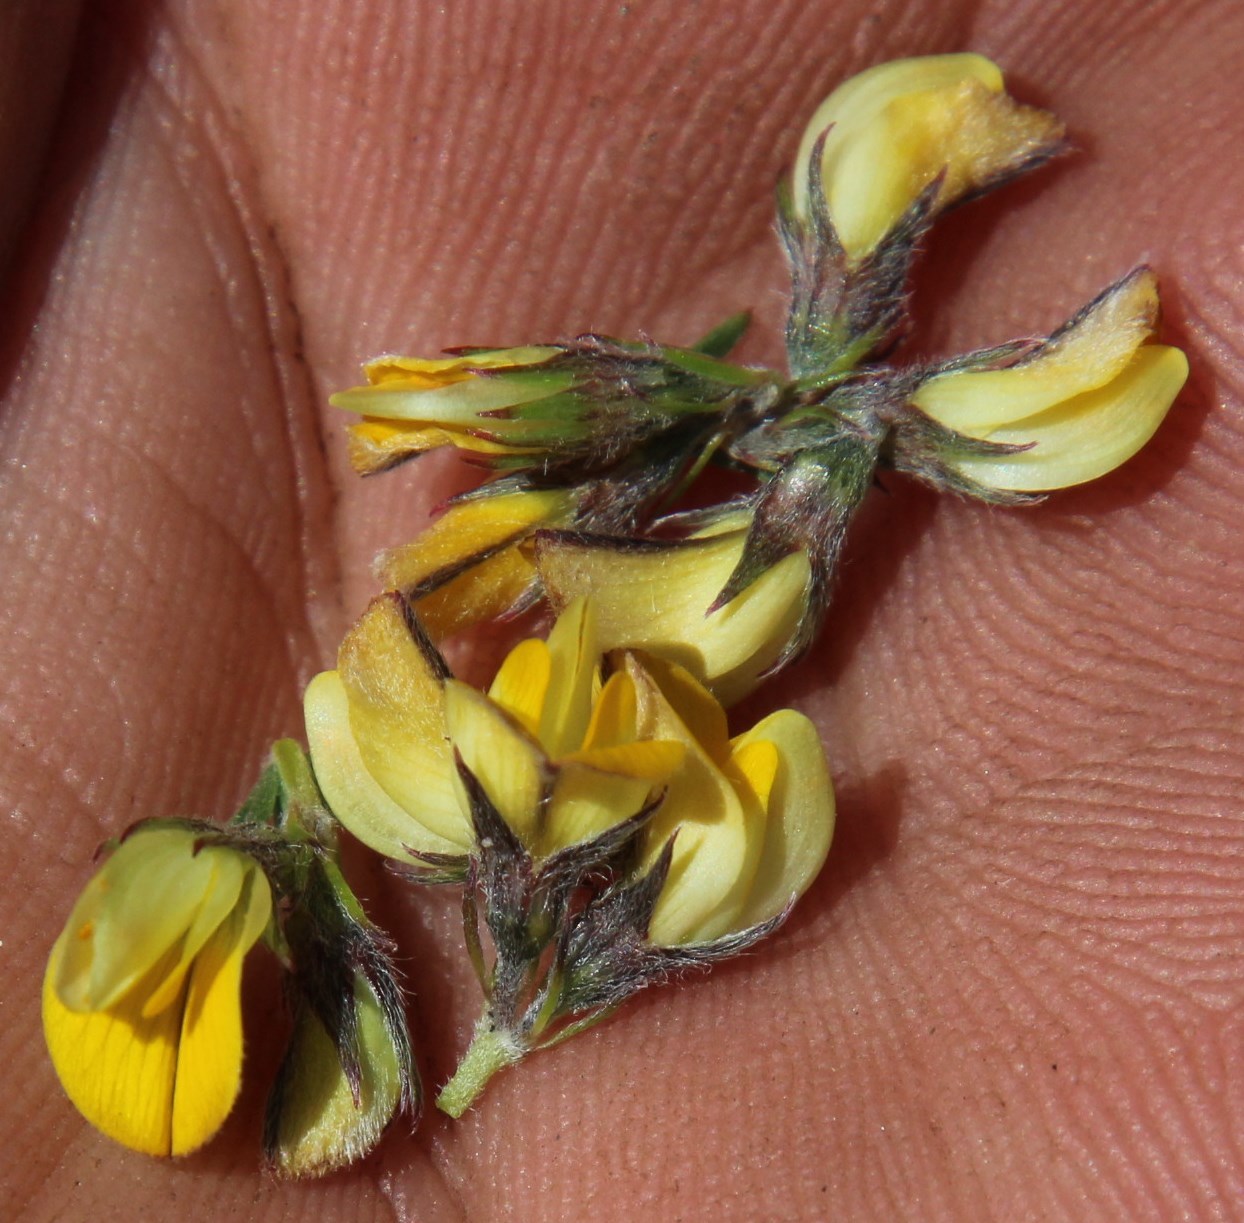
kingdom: Plantae
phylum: Tracheophyta
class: Magnoliopsida
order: Fabales
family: Fabaceae
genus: Aspalathus
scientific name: Aspalathus wittebergensis
